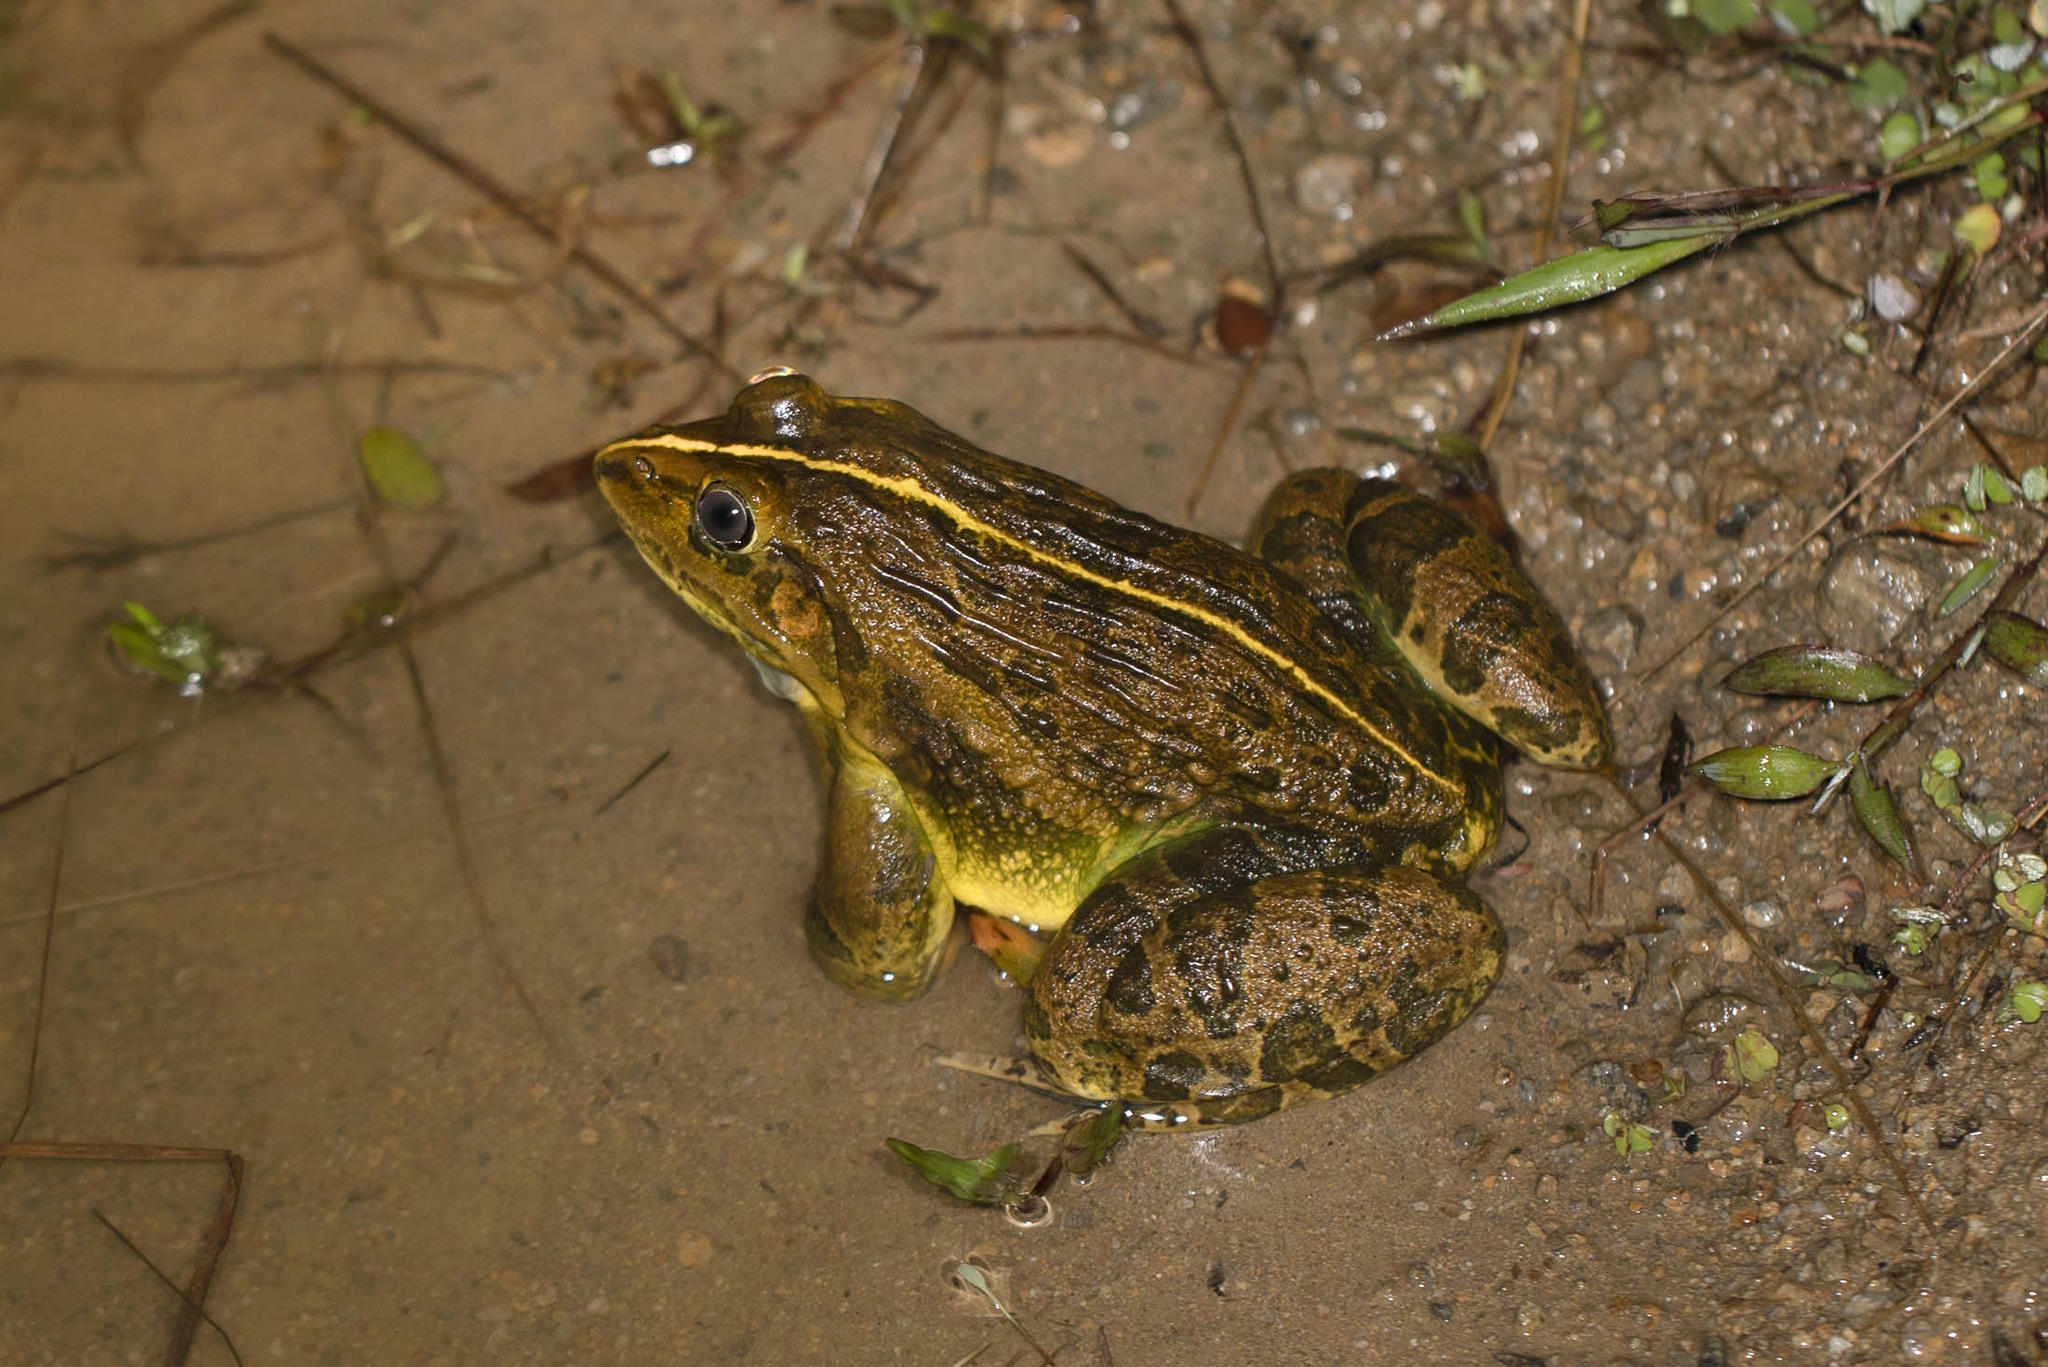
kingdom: Animalia
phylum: Chordata
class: Amphibia
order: Anura
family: Dicroglossidae
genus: Hoplobatrachus
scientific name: Hoplobatrachus tigerinus
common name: Indian bullfrog
